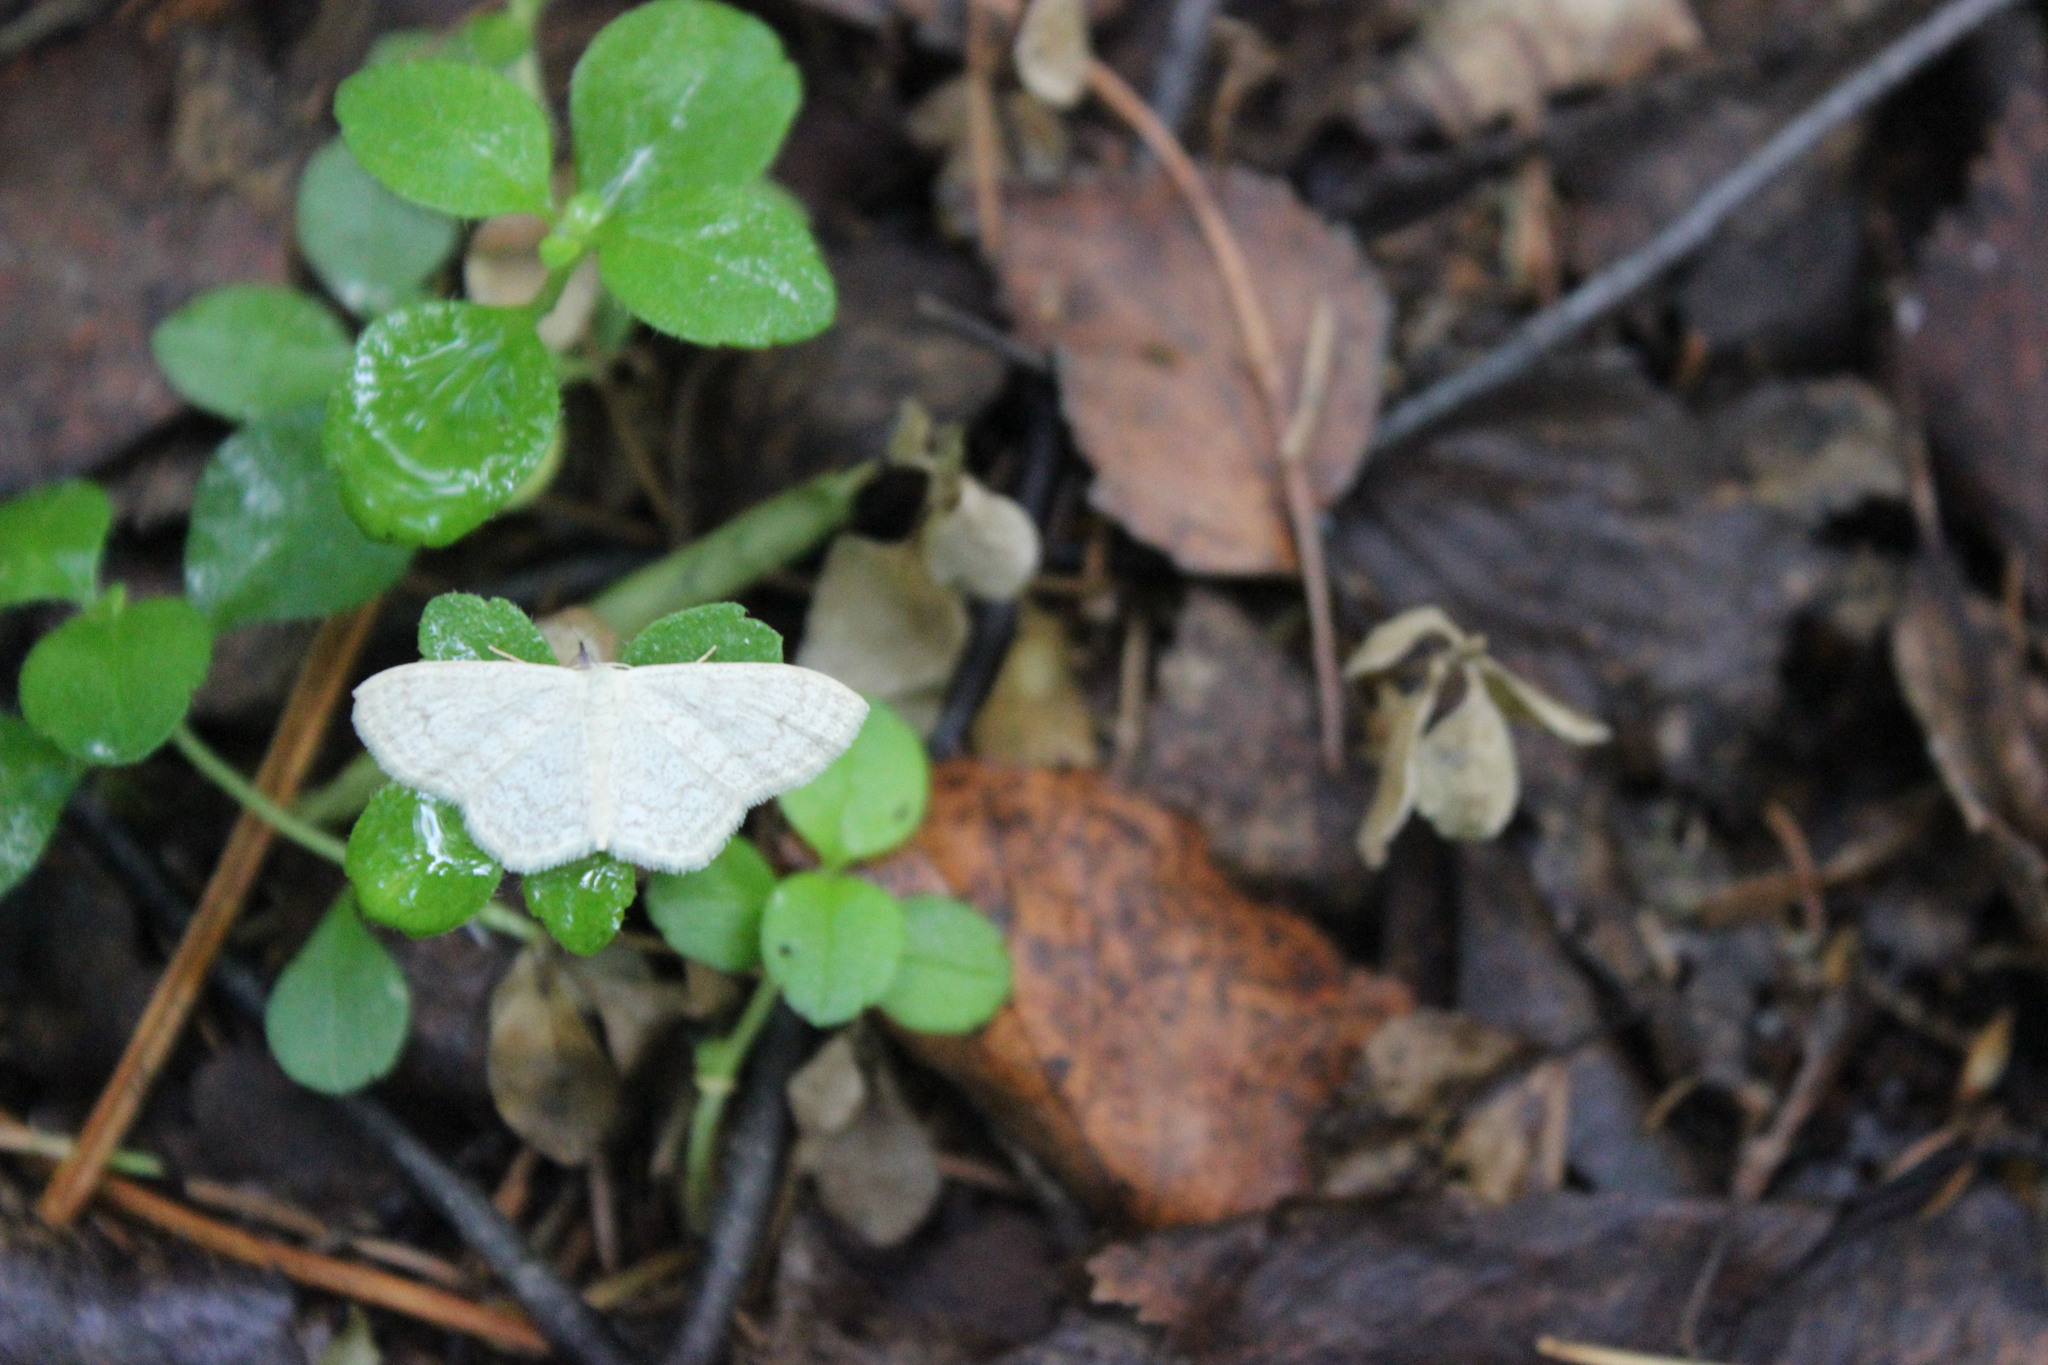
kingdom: Animalia
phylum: Arthropoda
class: Insecta
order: Lepidoptera
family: Geometridae
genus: Scopula
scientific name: Scopula floslactata
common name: Cream wave
